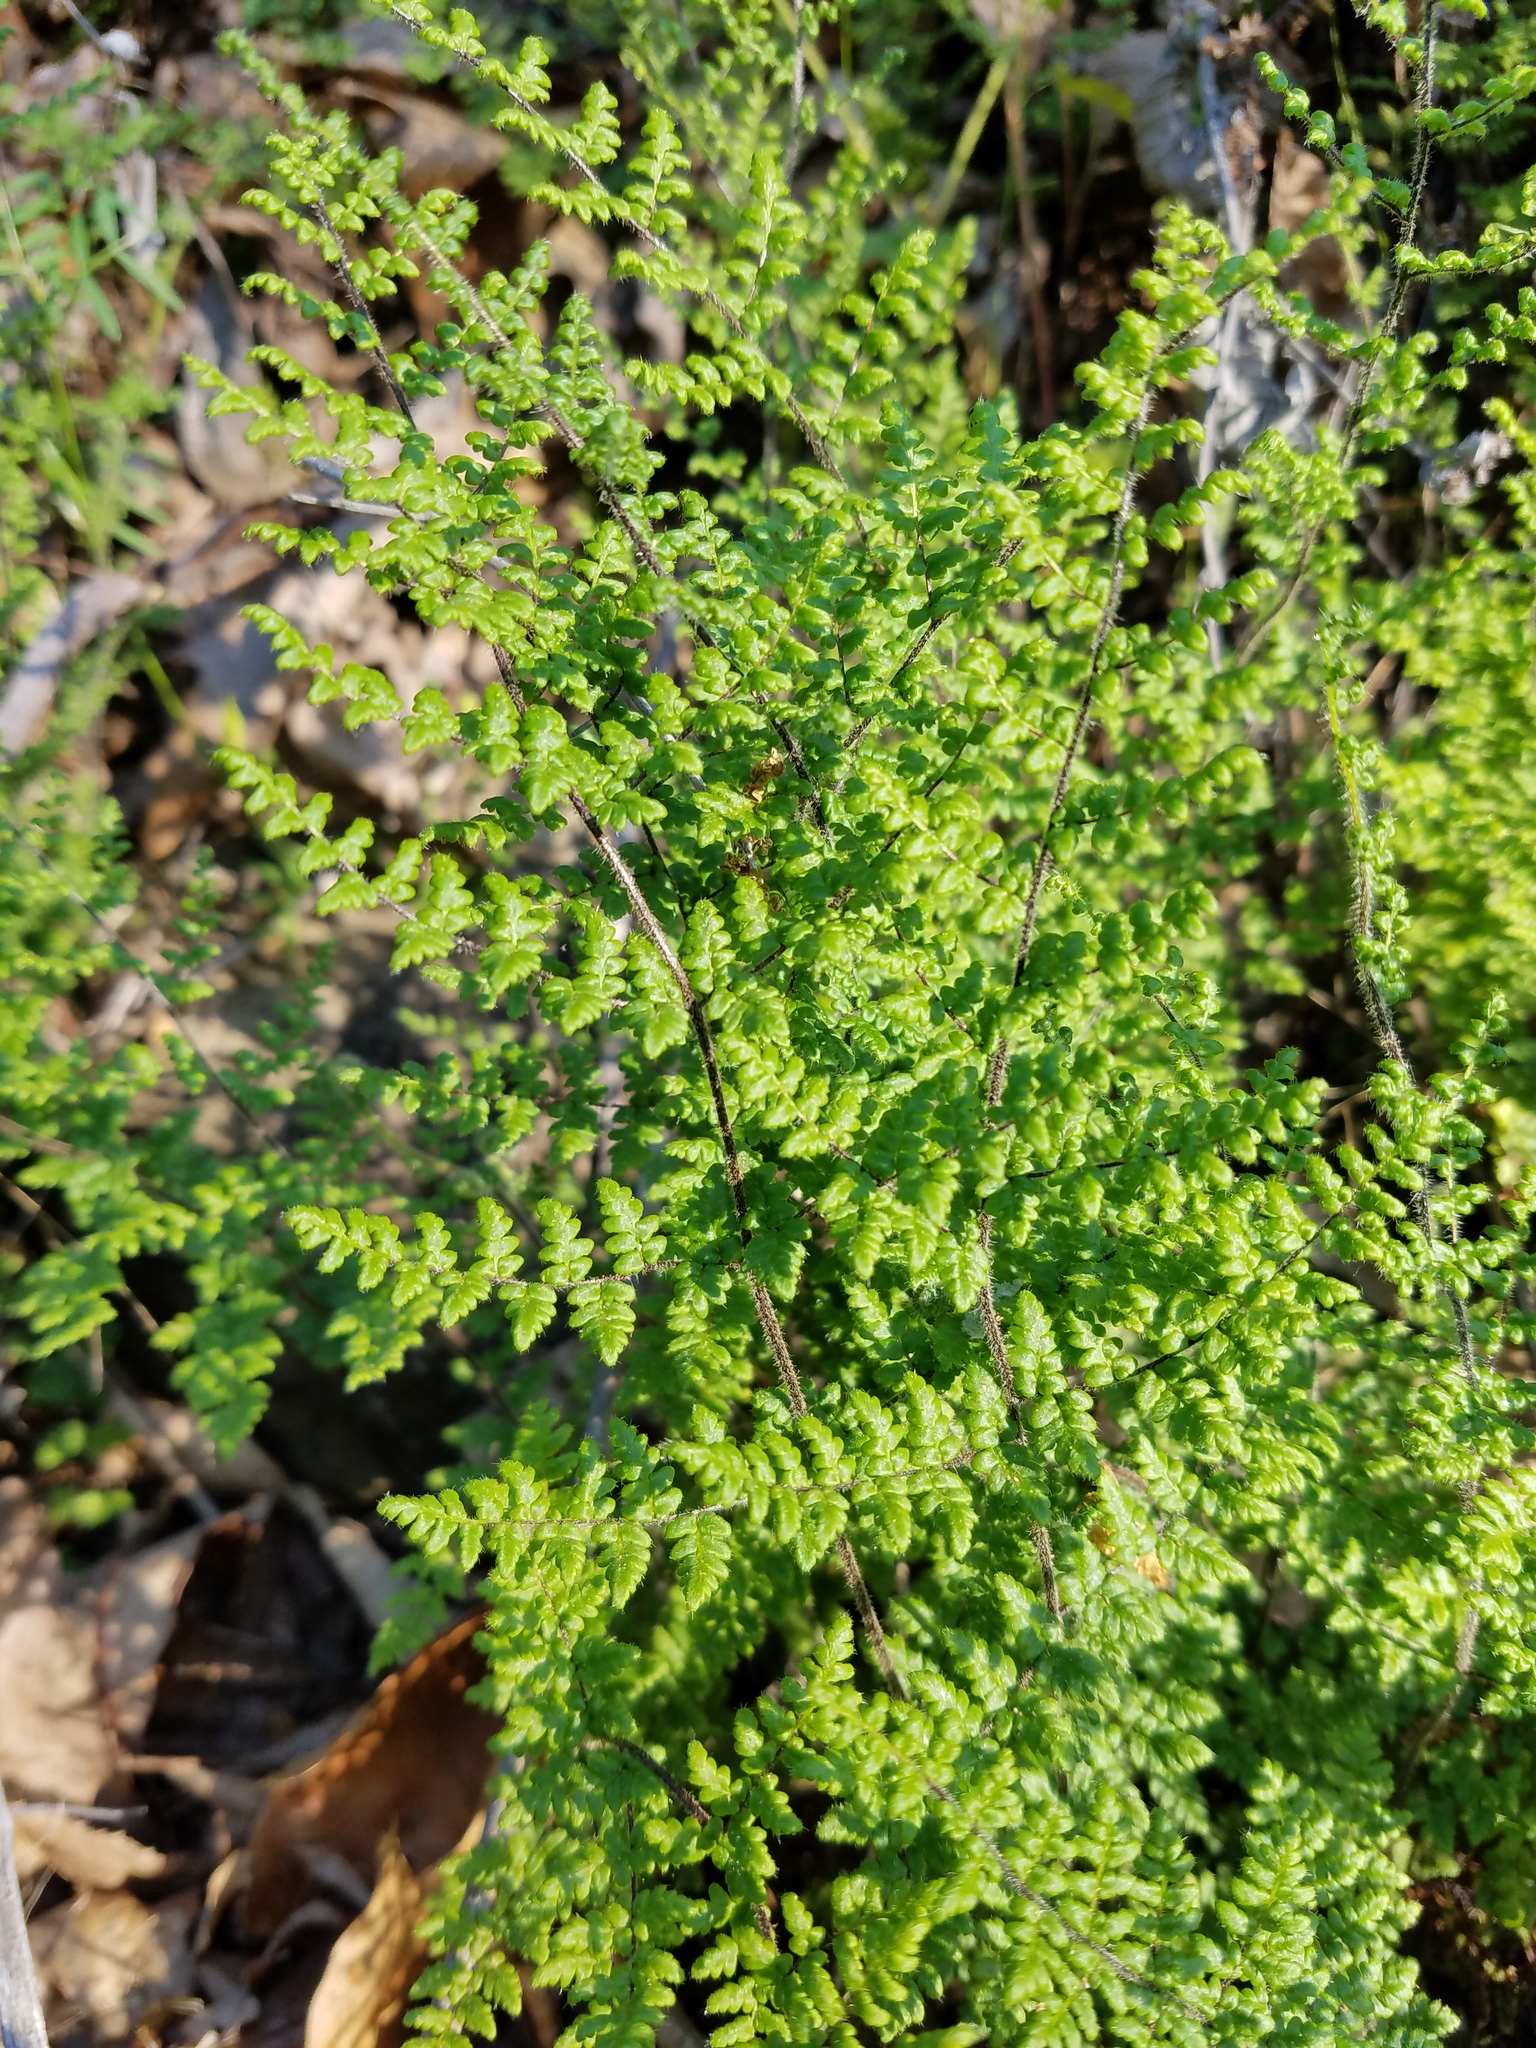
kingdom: Plantae
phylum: Tracheophyta
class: Polypodiopsida
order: Polypodiales
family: Pteridaceae
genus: Myriopteris
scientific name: Myriopteris lanosa
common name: Hairy lip fern
